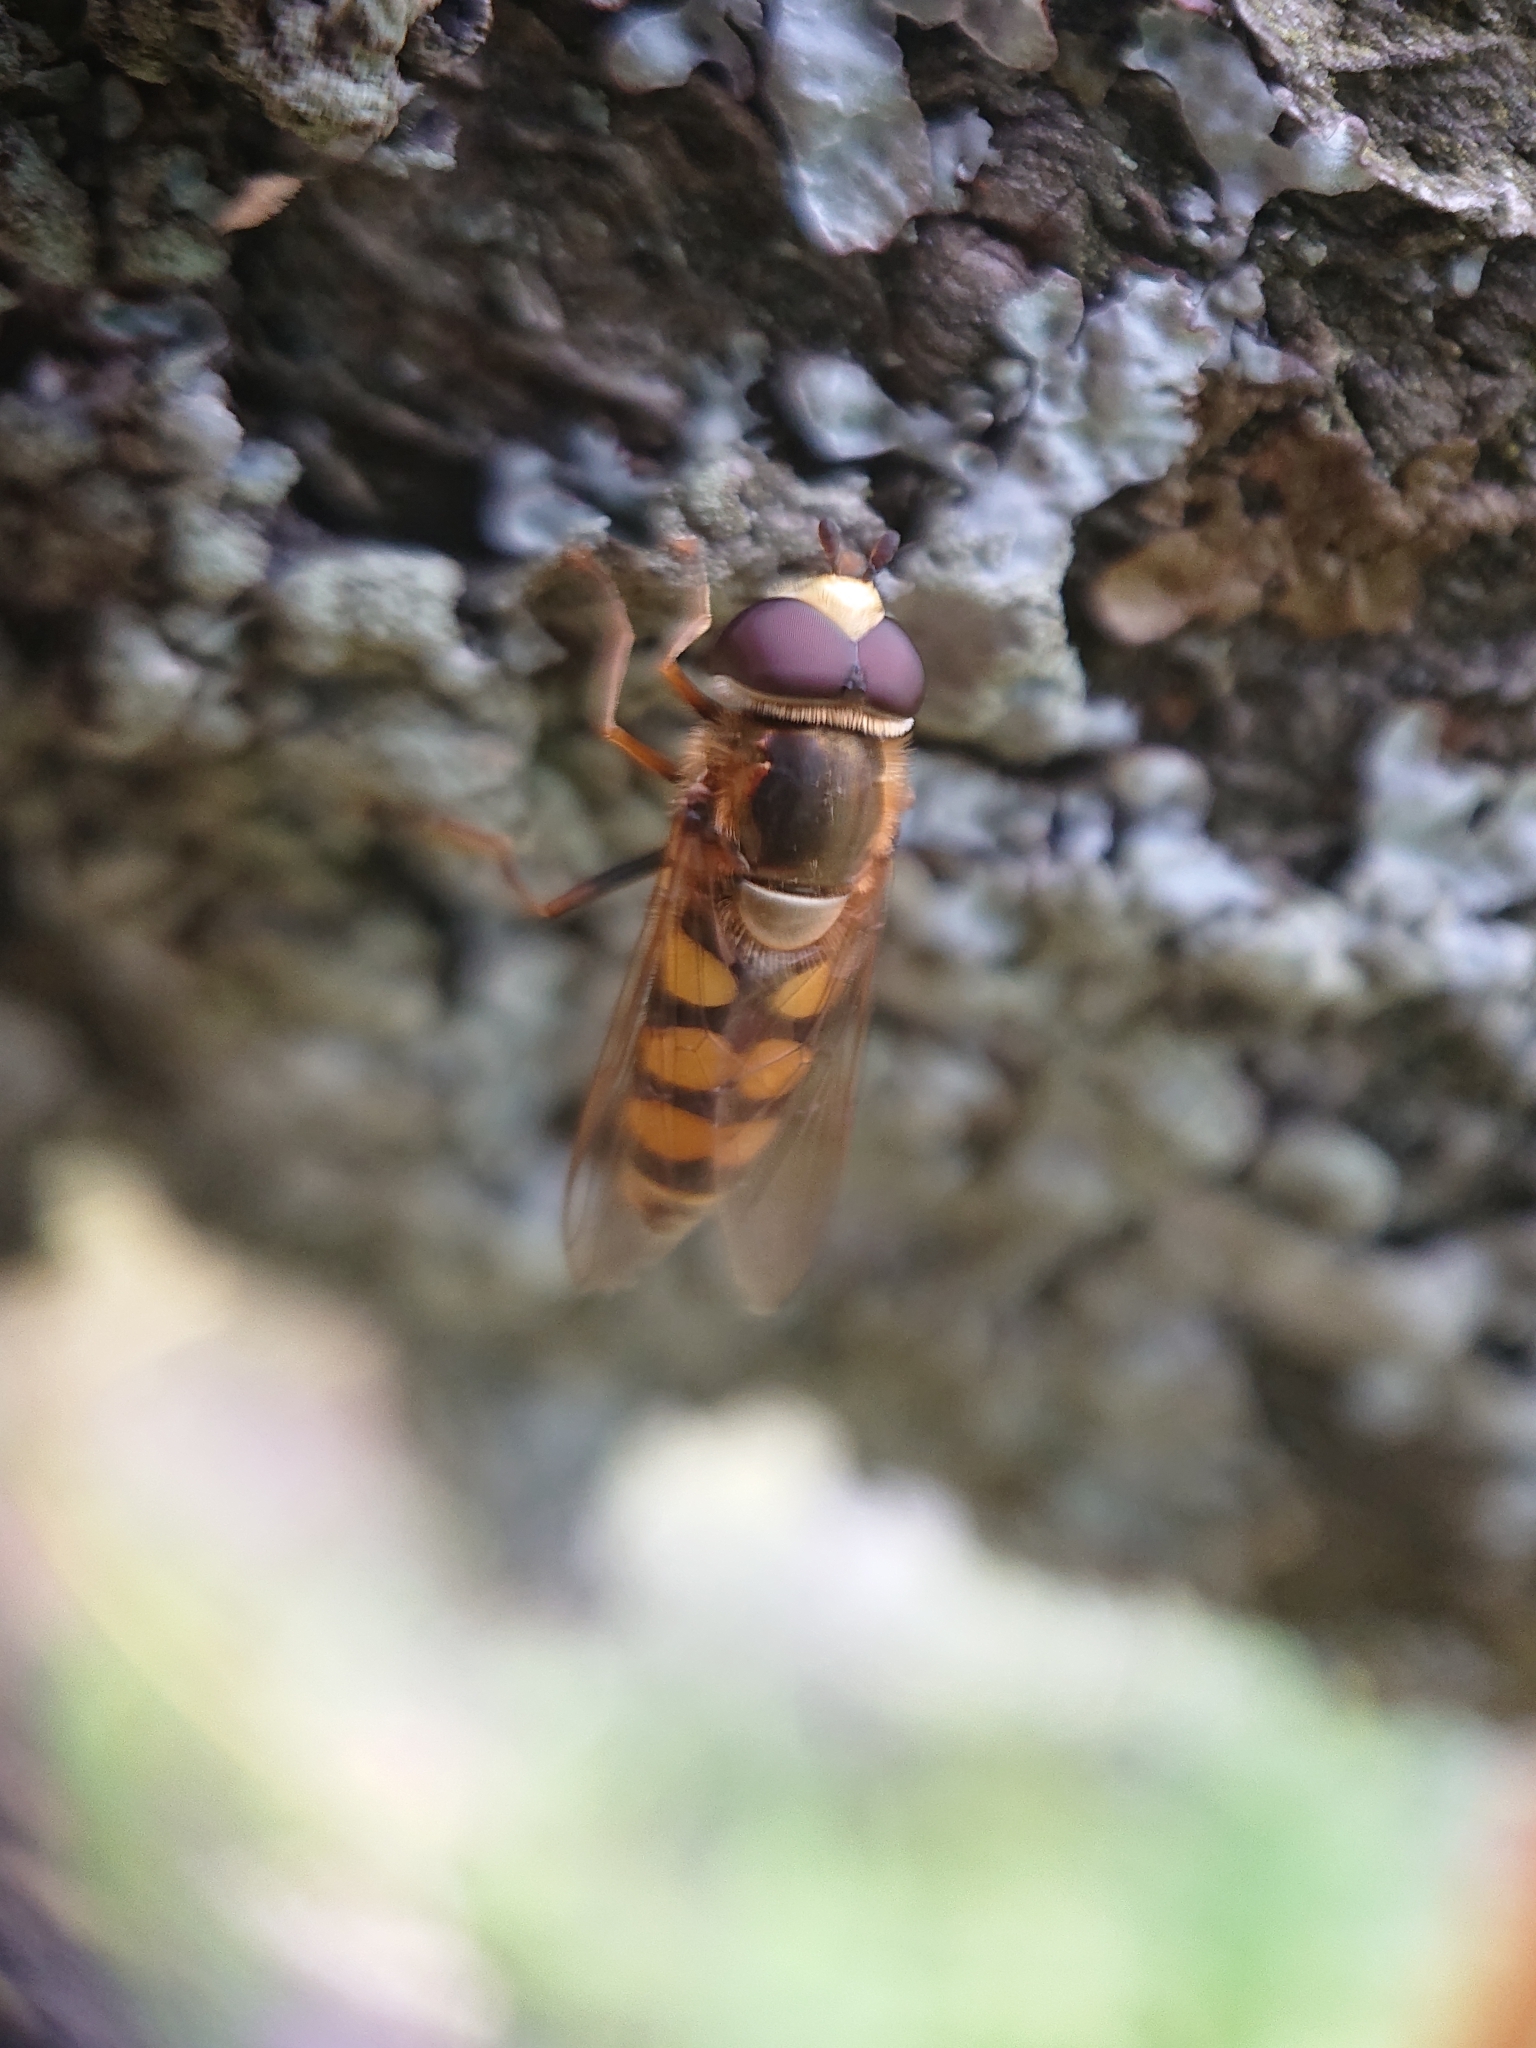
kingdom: Animalia
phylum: Arthropoda
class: Insecta
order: Diptera
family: Syrphidae
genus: Eupeodes
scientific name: Eupeodes corollae
